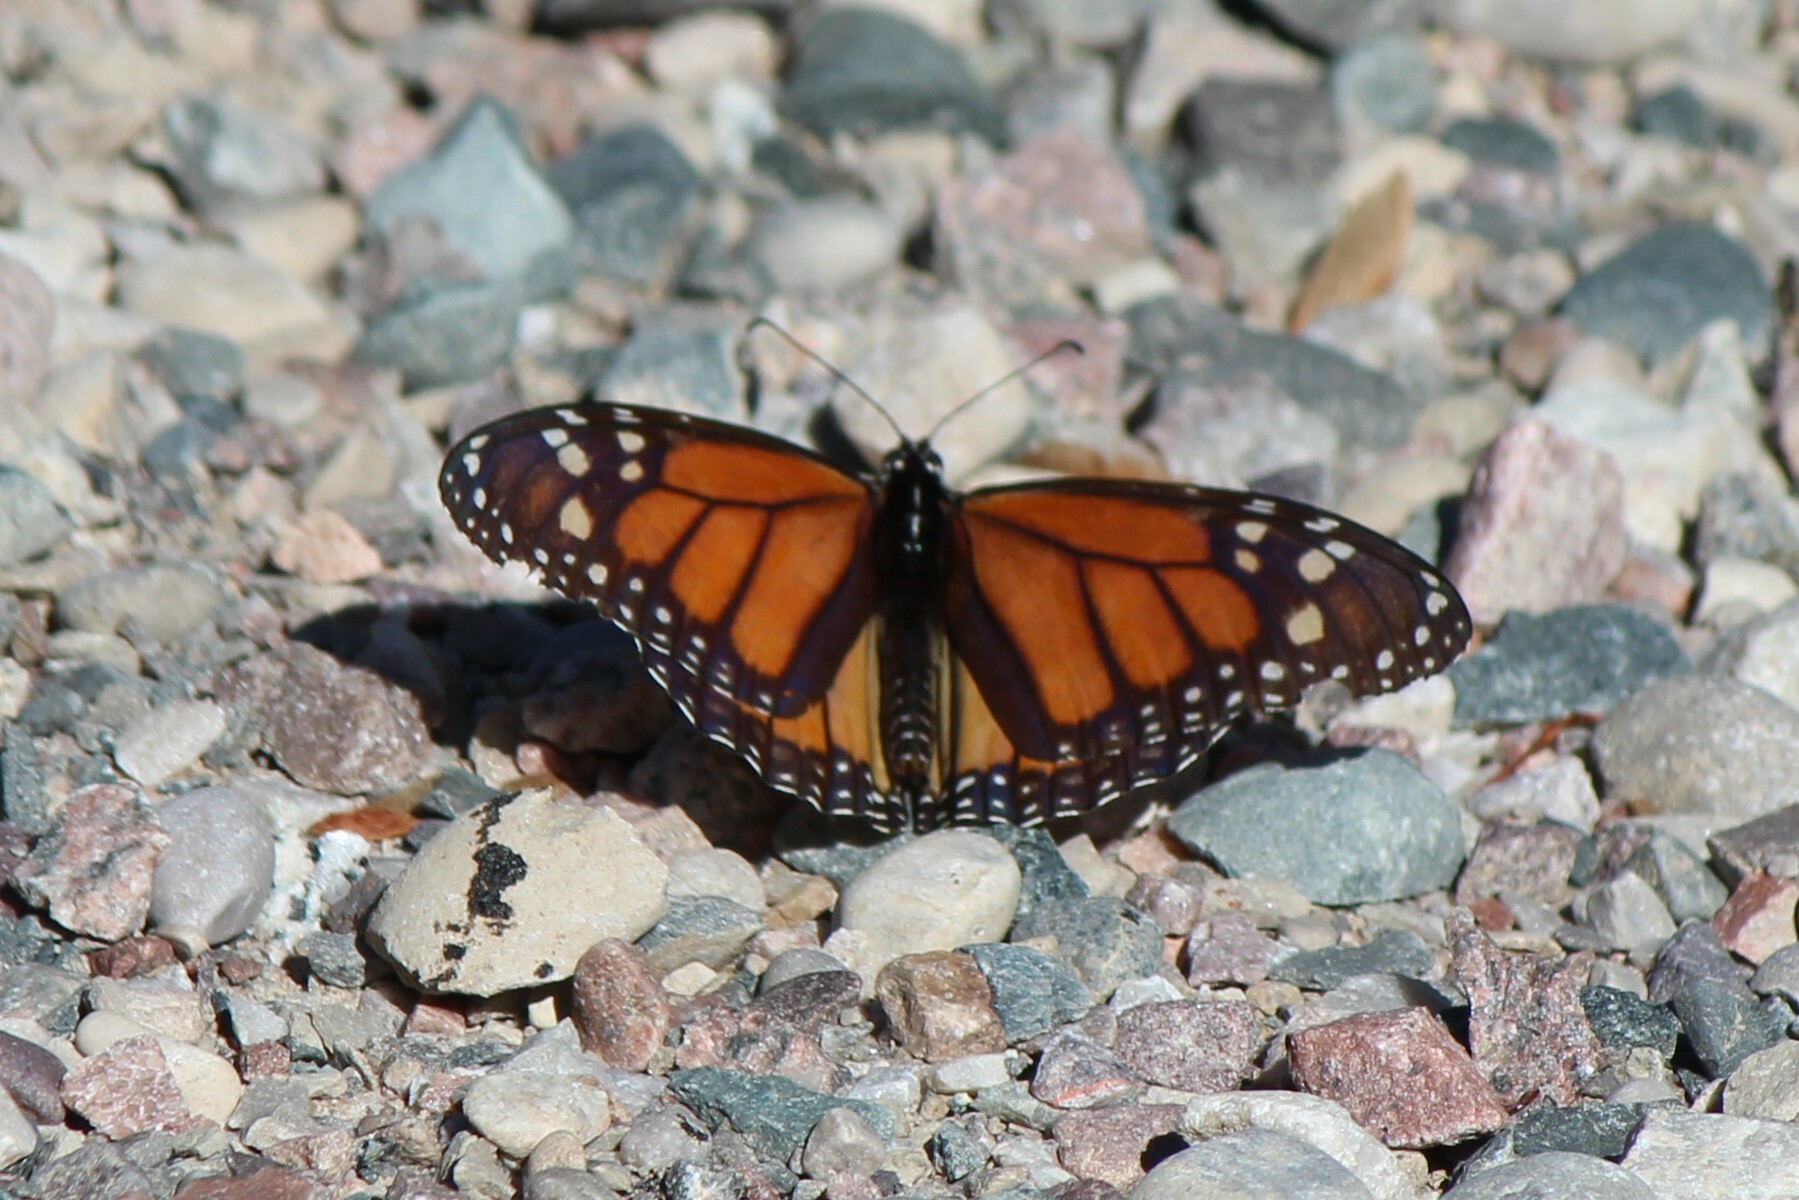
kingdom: Animalia
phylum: Arthropoda
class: Insecta
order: Lepidoptera
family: Nymphalidae
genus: Danaus
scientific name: Danaus plexippus
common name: Monarch
